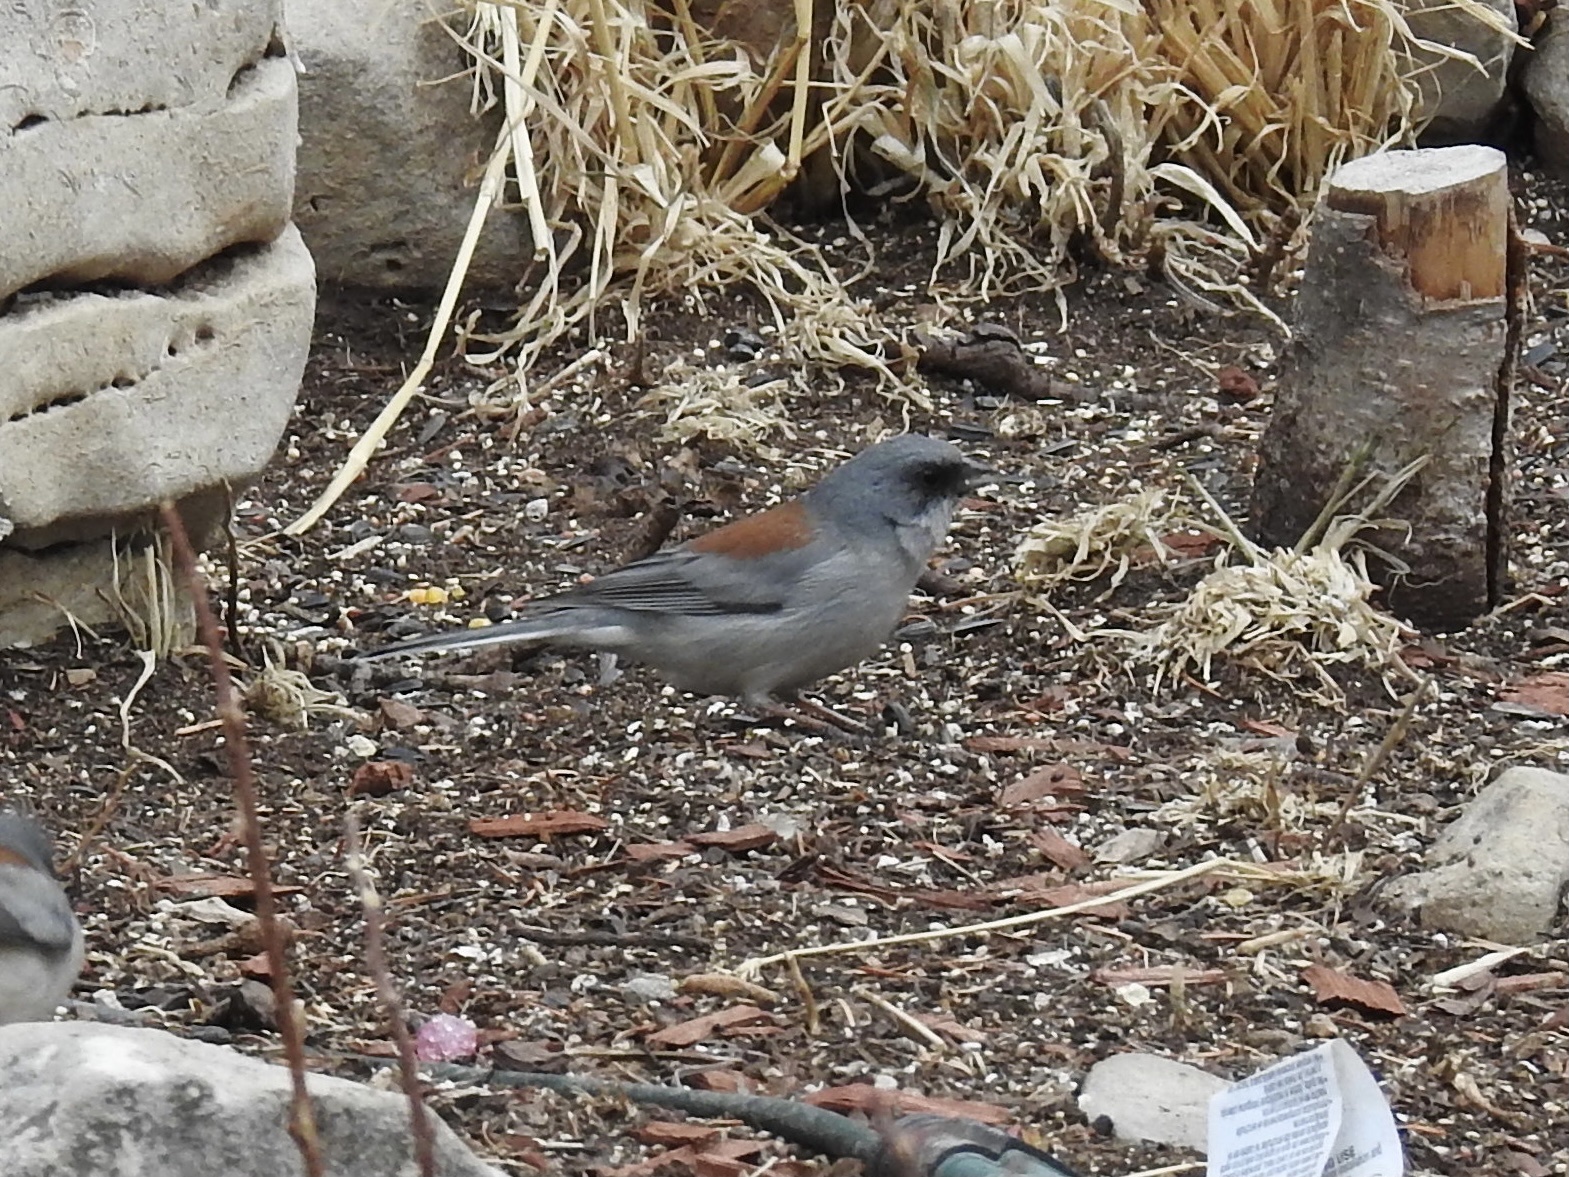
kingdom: Animalia
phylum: Chordata
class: Aves
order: Passeriformes
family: Passerellidae
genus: Junco
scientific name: Junco hyemalis
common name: Dark-eyed junco
